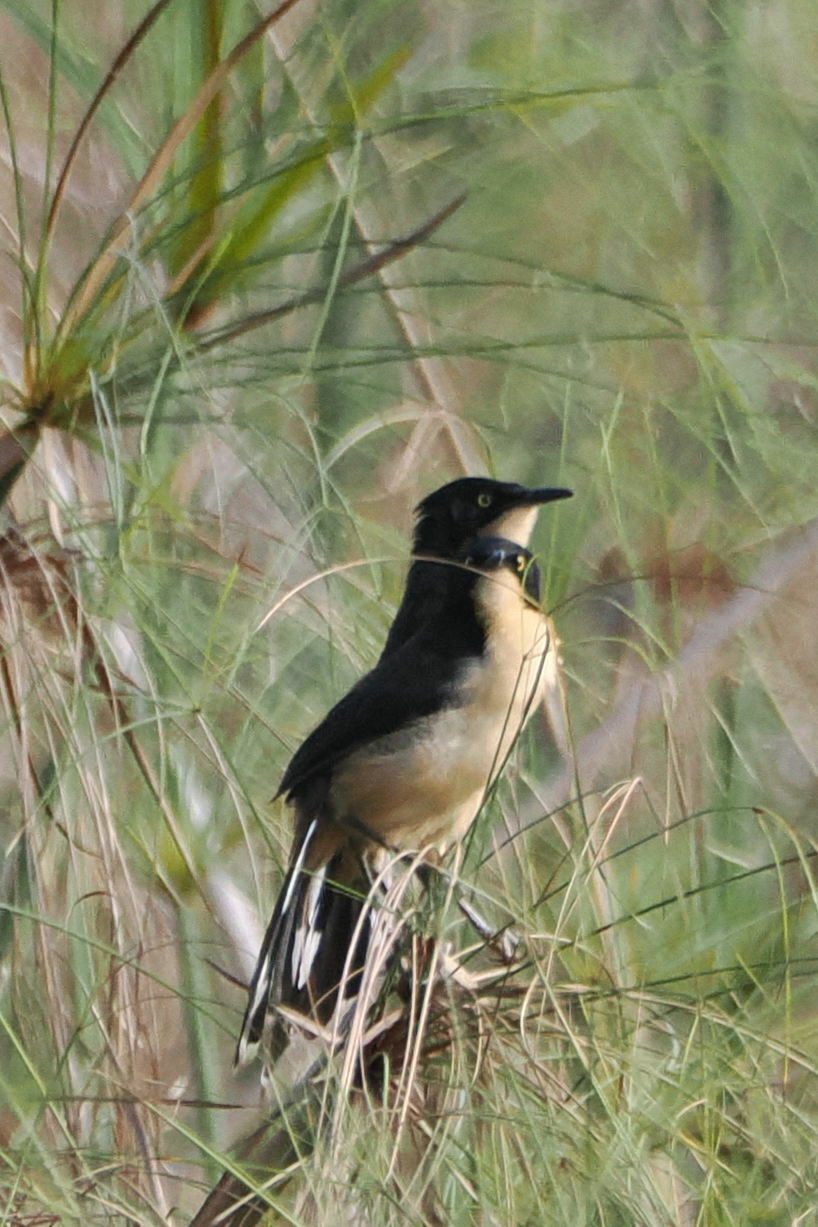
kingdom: Animalia
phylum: Chordata
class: Aves
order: Passeriformes
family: Donacobiidae
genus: Donacobius
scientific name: Donacobius atricapilla
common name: Black-capped donacobius
